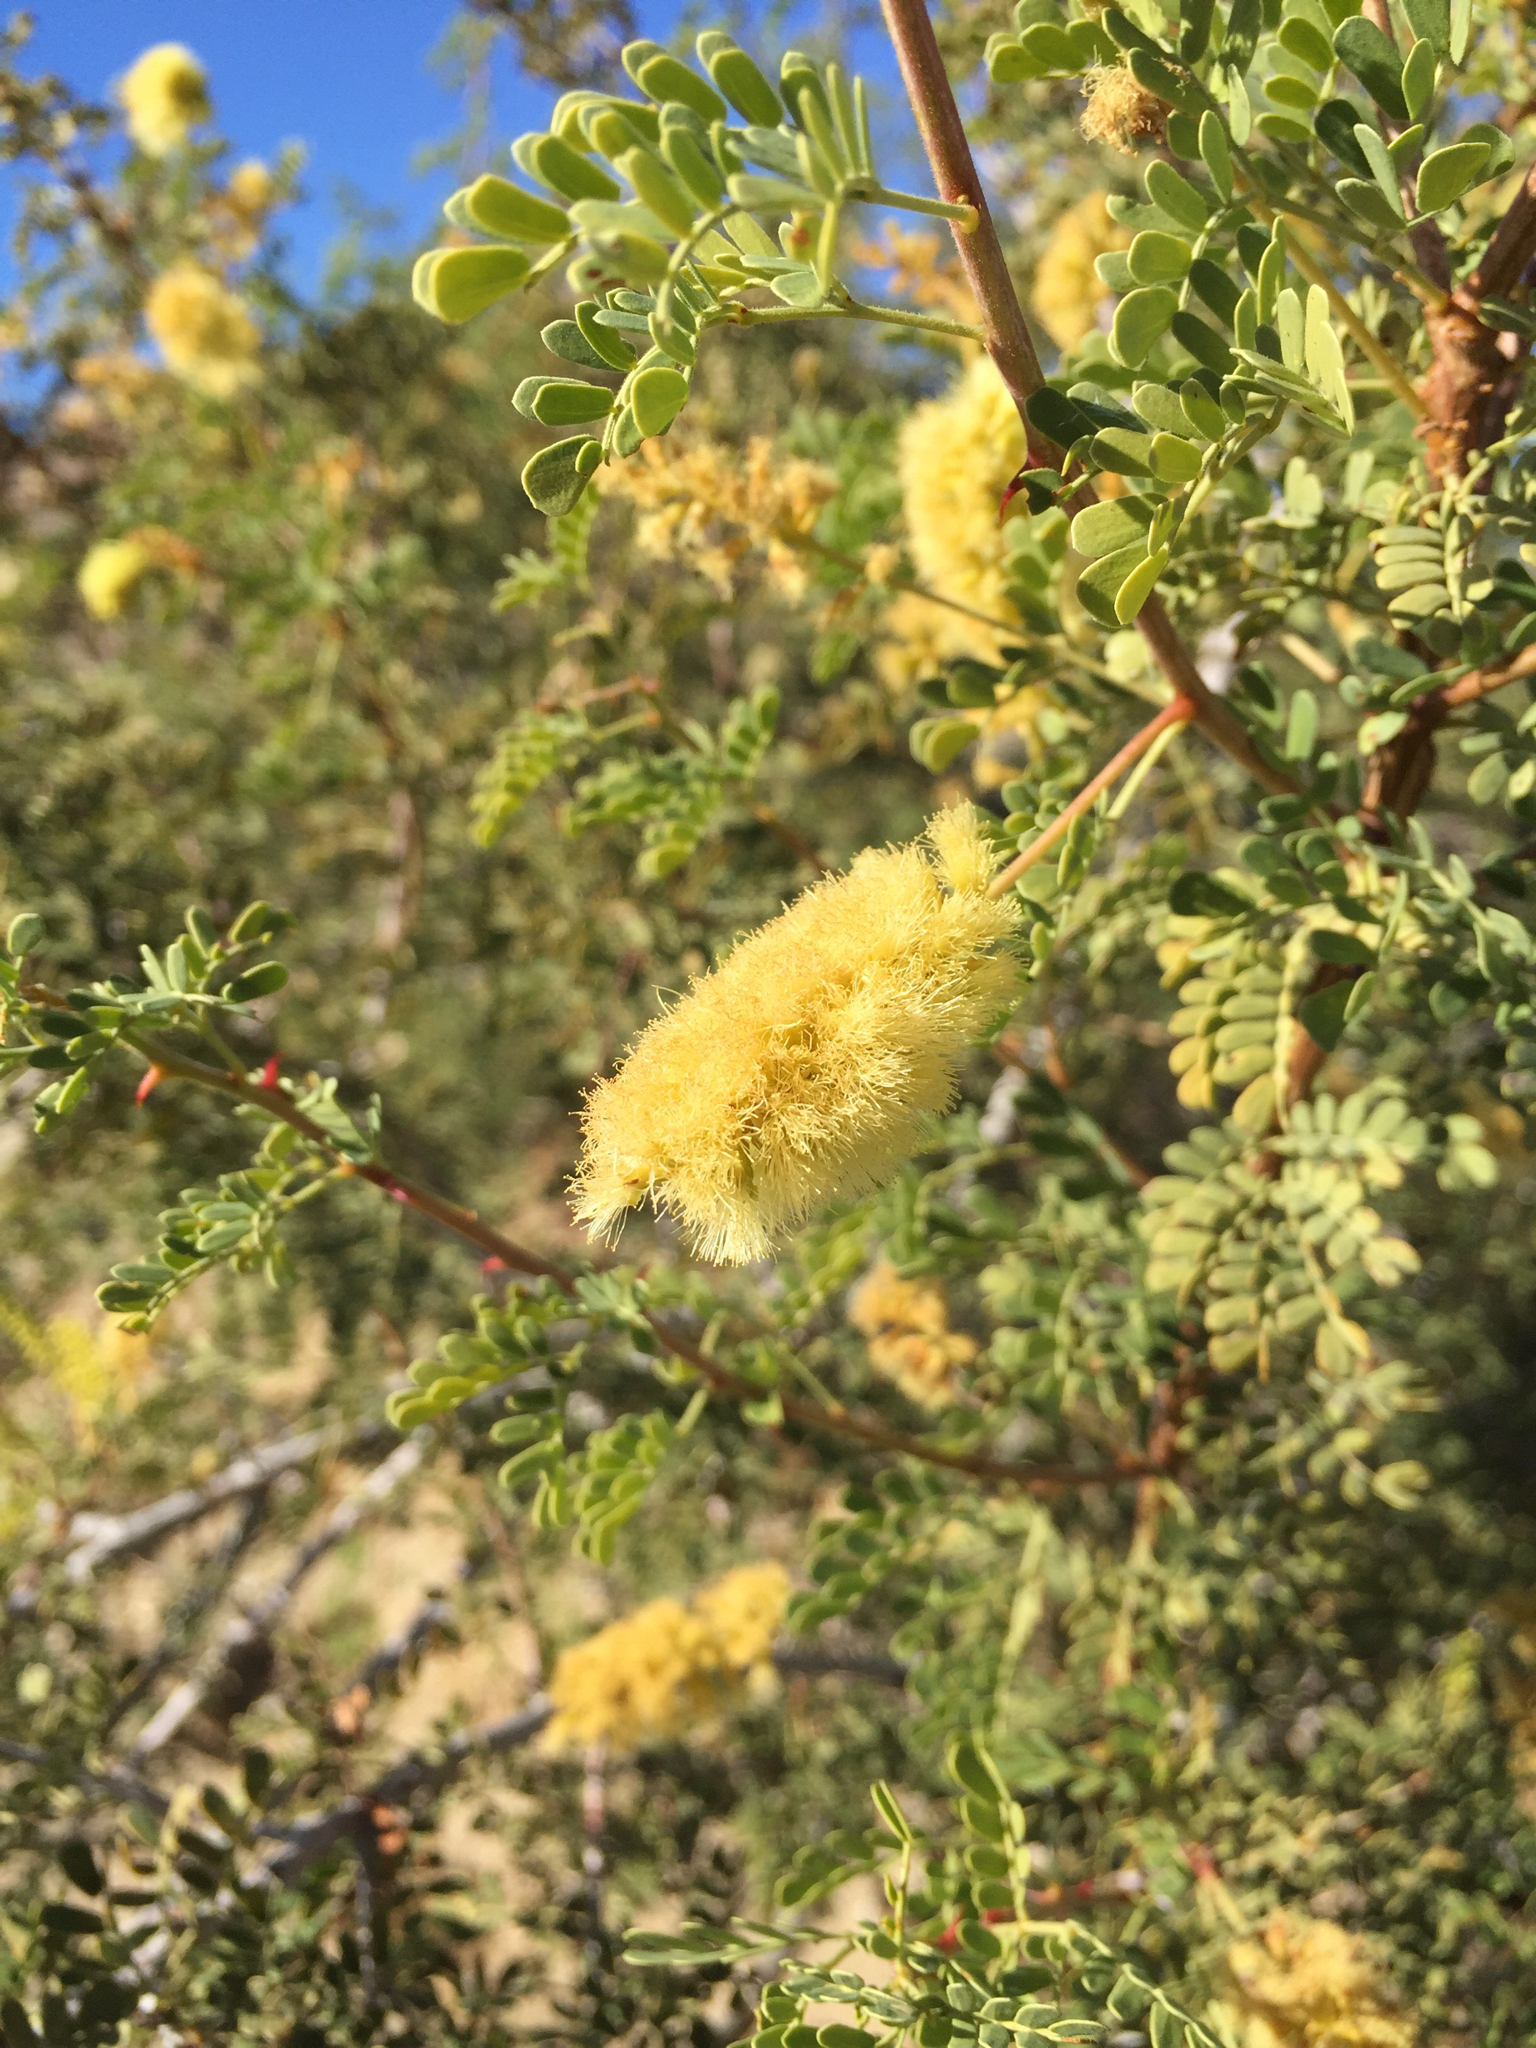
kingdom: Plantae
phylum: Tracheophyta
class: Magnoliopsida
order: Fabales
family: Fabaceae
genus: Senegalia
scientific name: Senegalia greggii
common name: Texas-mimosa
